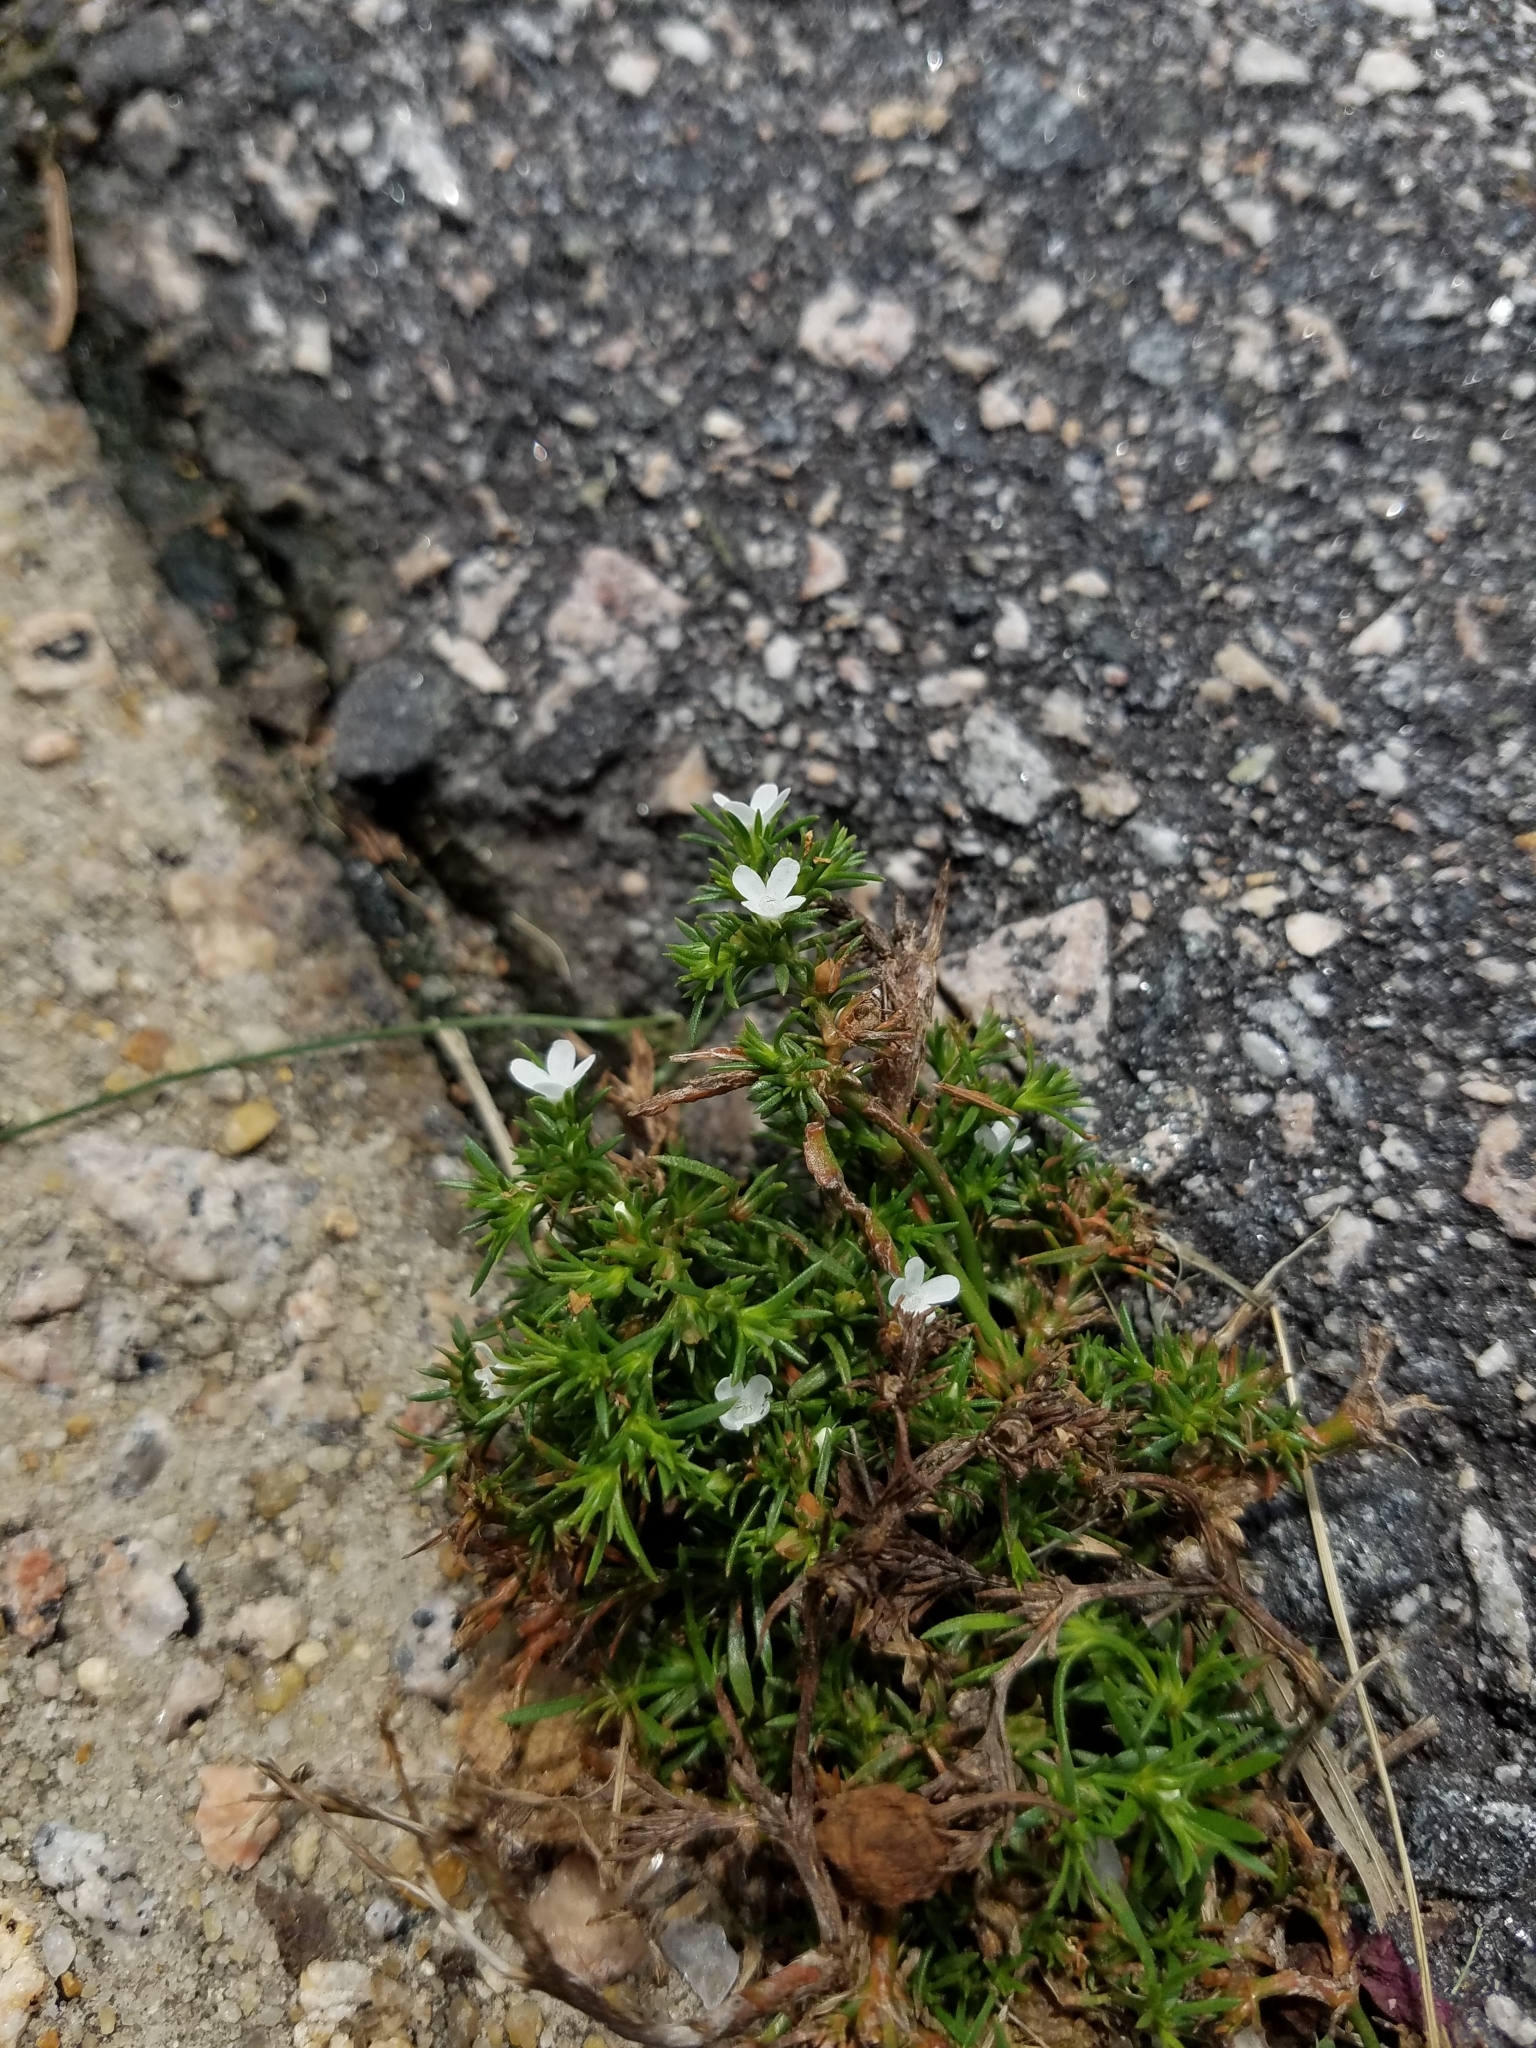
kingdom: Plantae
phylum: Tracheophyta
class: Magnoliopsida
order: Lamiales
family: Tetrachondraceae
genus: Polypremum
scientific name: Polypremum procumbens
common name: Juniper-leaf
